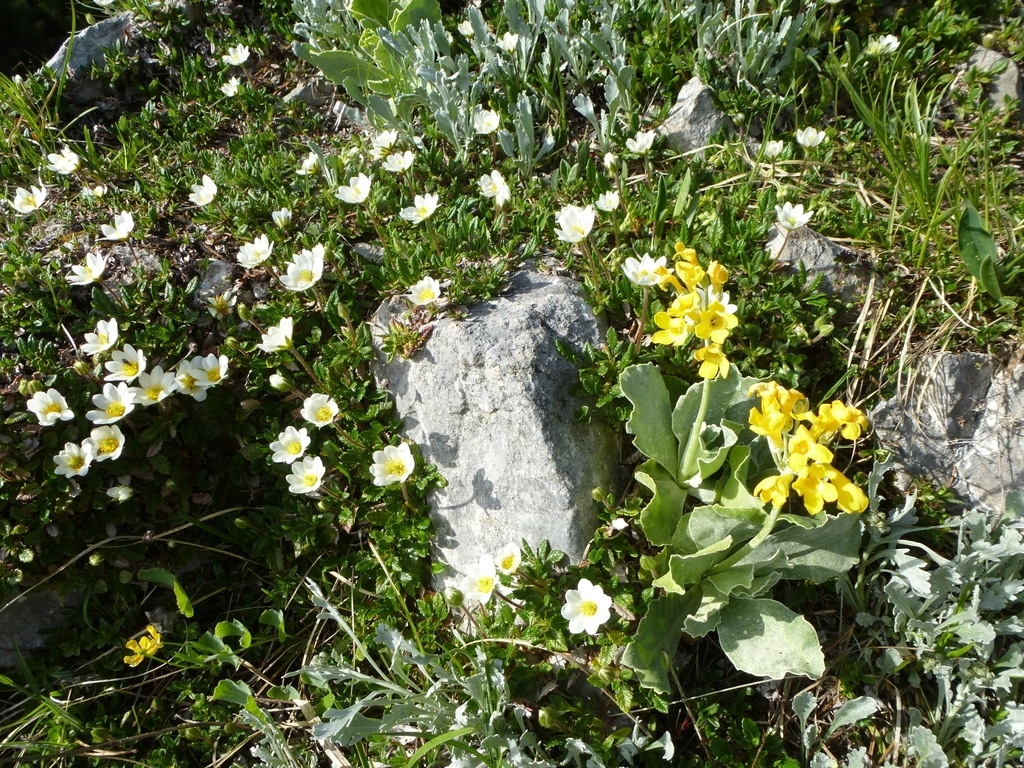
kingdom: Plantae
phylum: Tracheophyta
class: Magnoliopsida
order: Ericales
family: Primulaceae
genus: Primula
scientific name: Primula auricula
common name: Auricula
